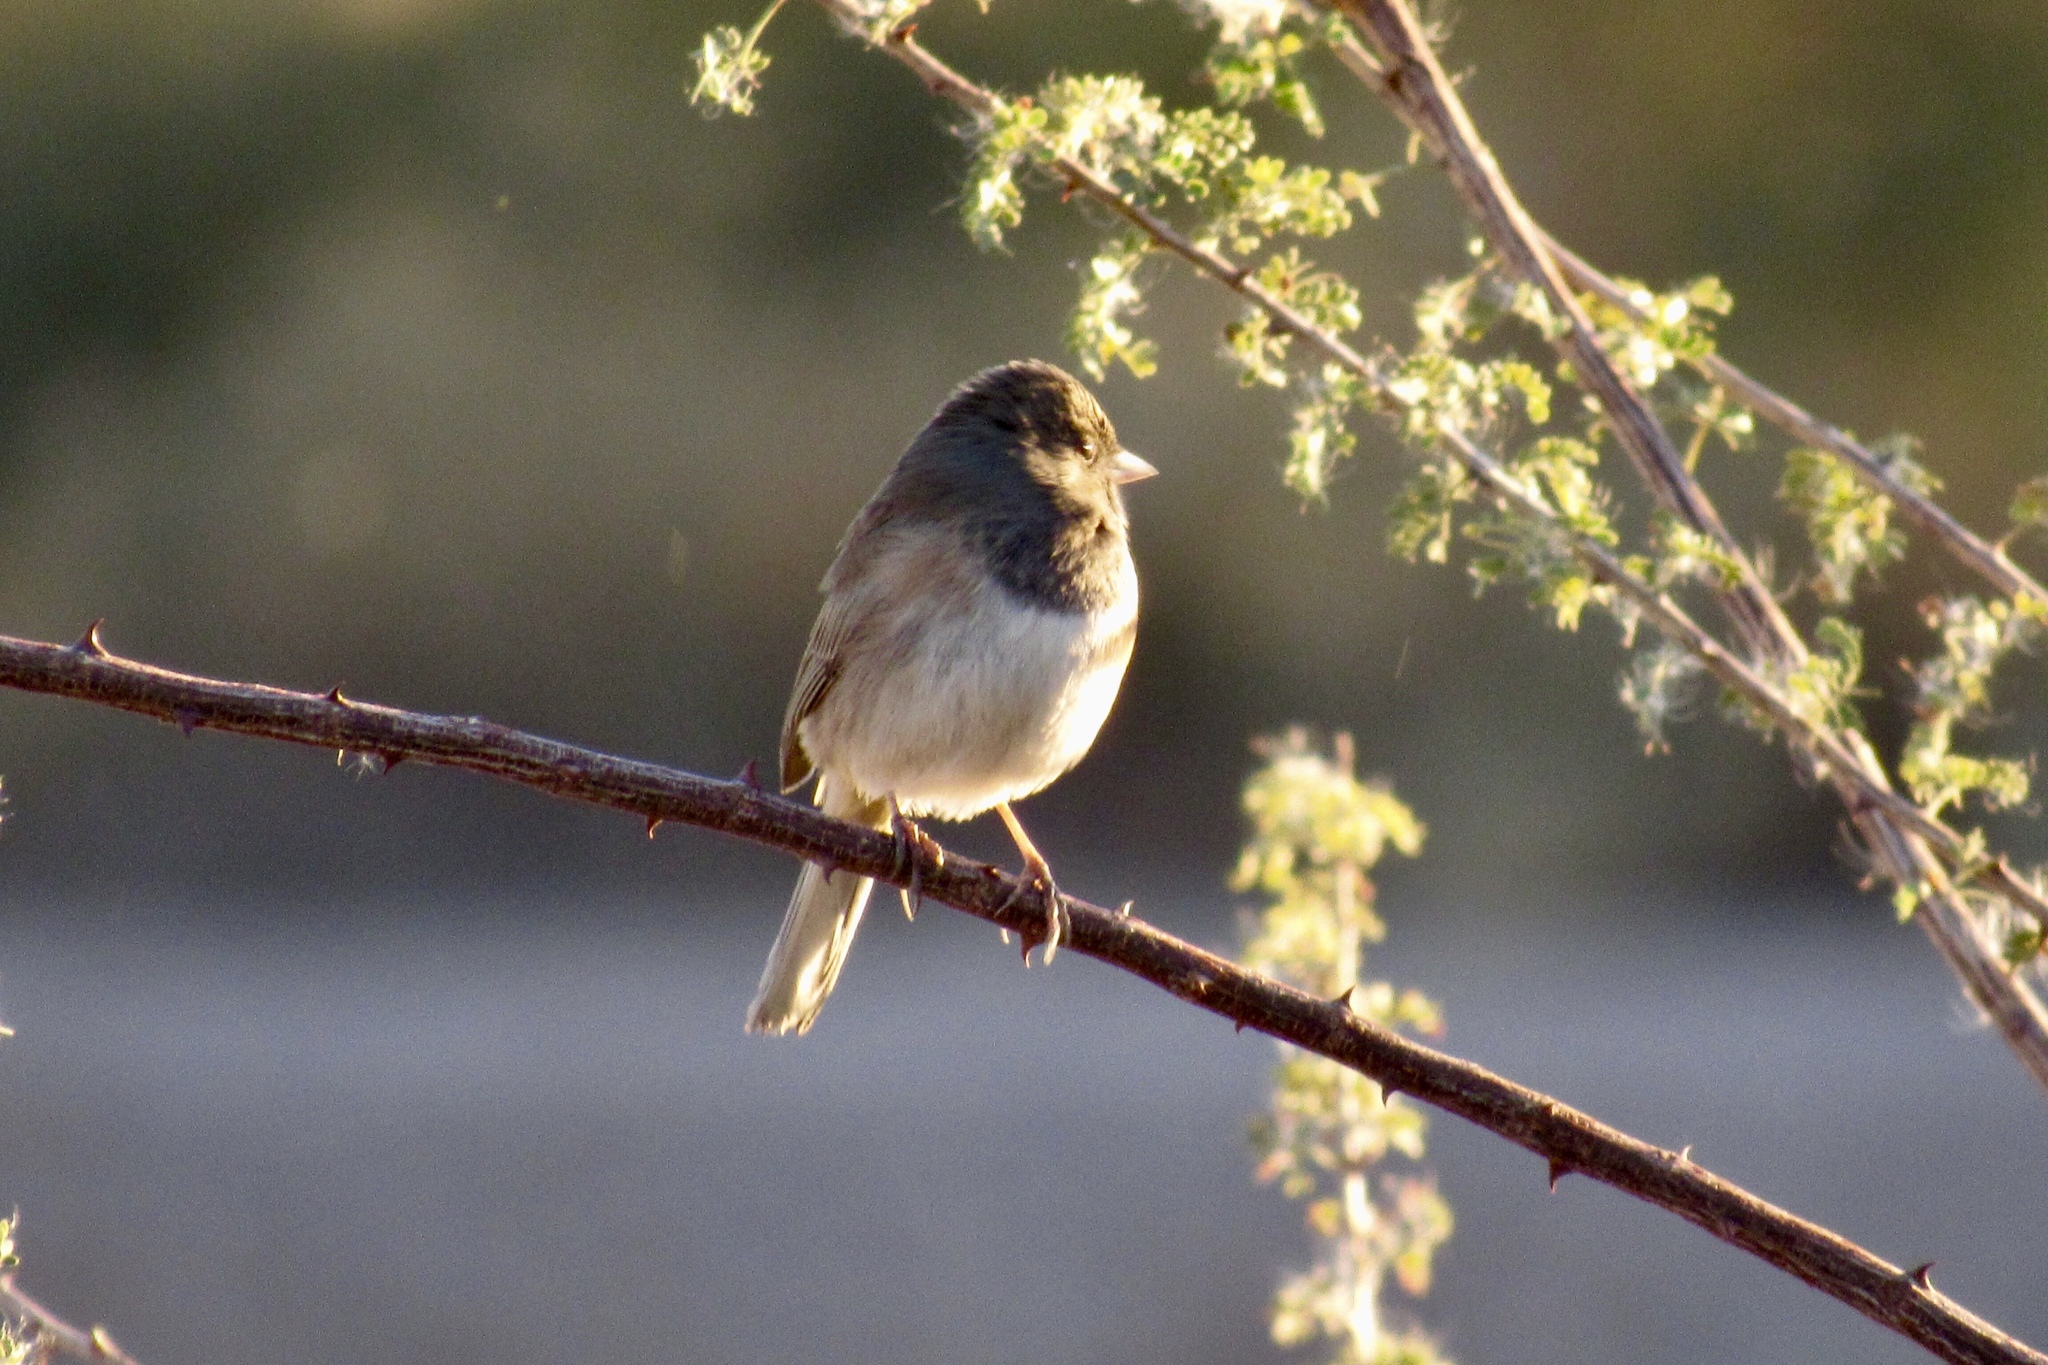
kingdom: Animalia
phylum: Chordata
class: Aves
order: Passeriformes
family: Passerellidae
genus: Junco
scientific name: Junco hyemalis
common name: Dark-eyed junco
